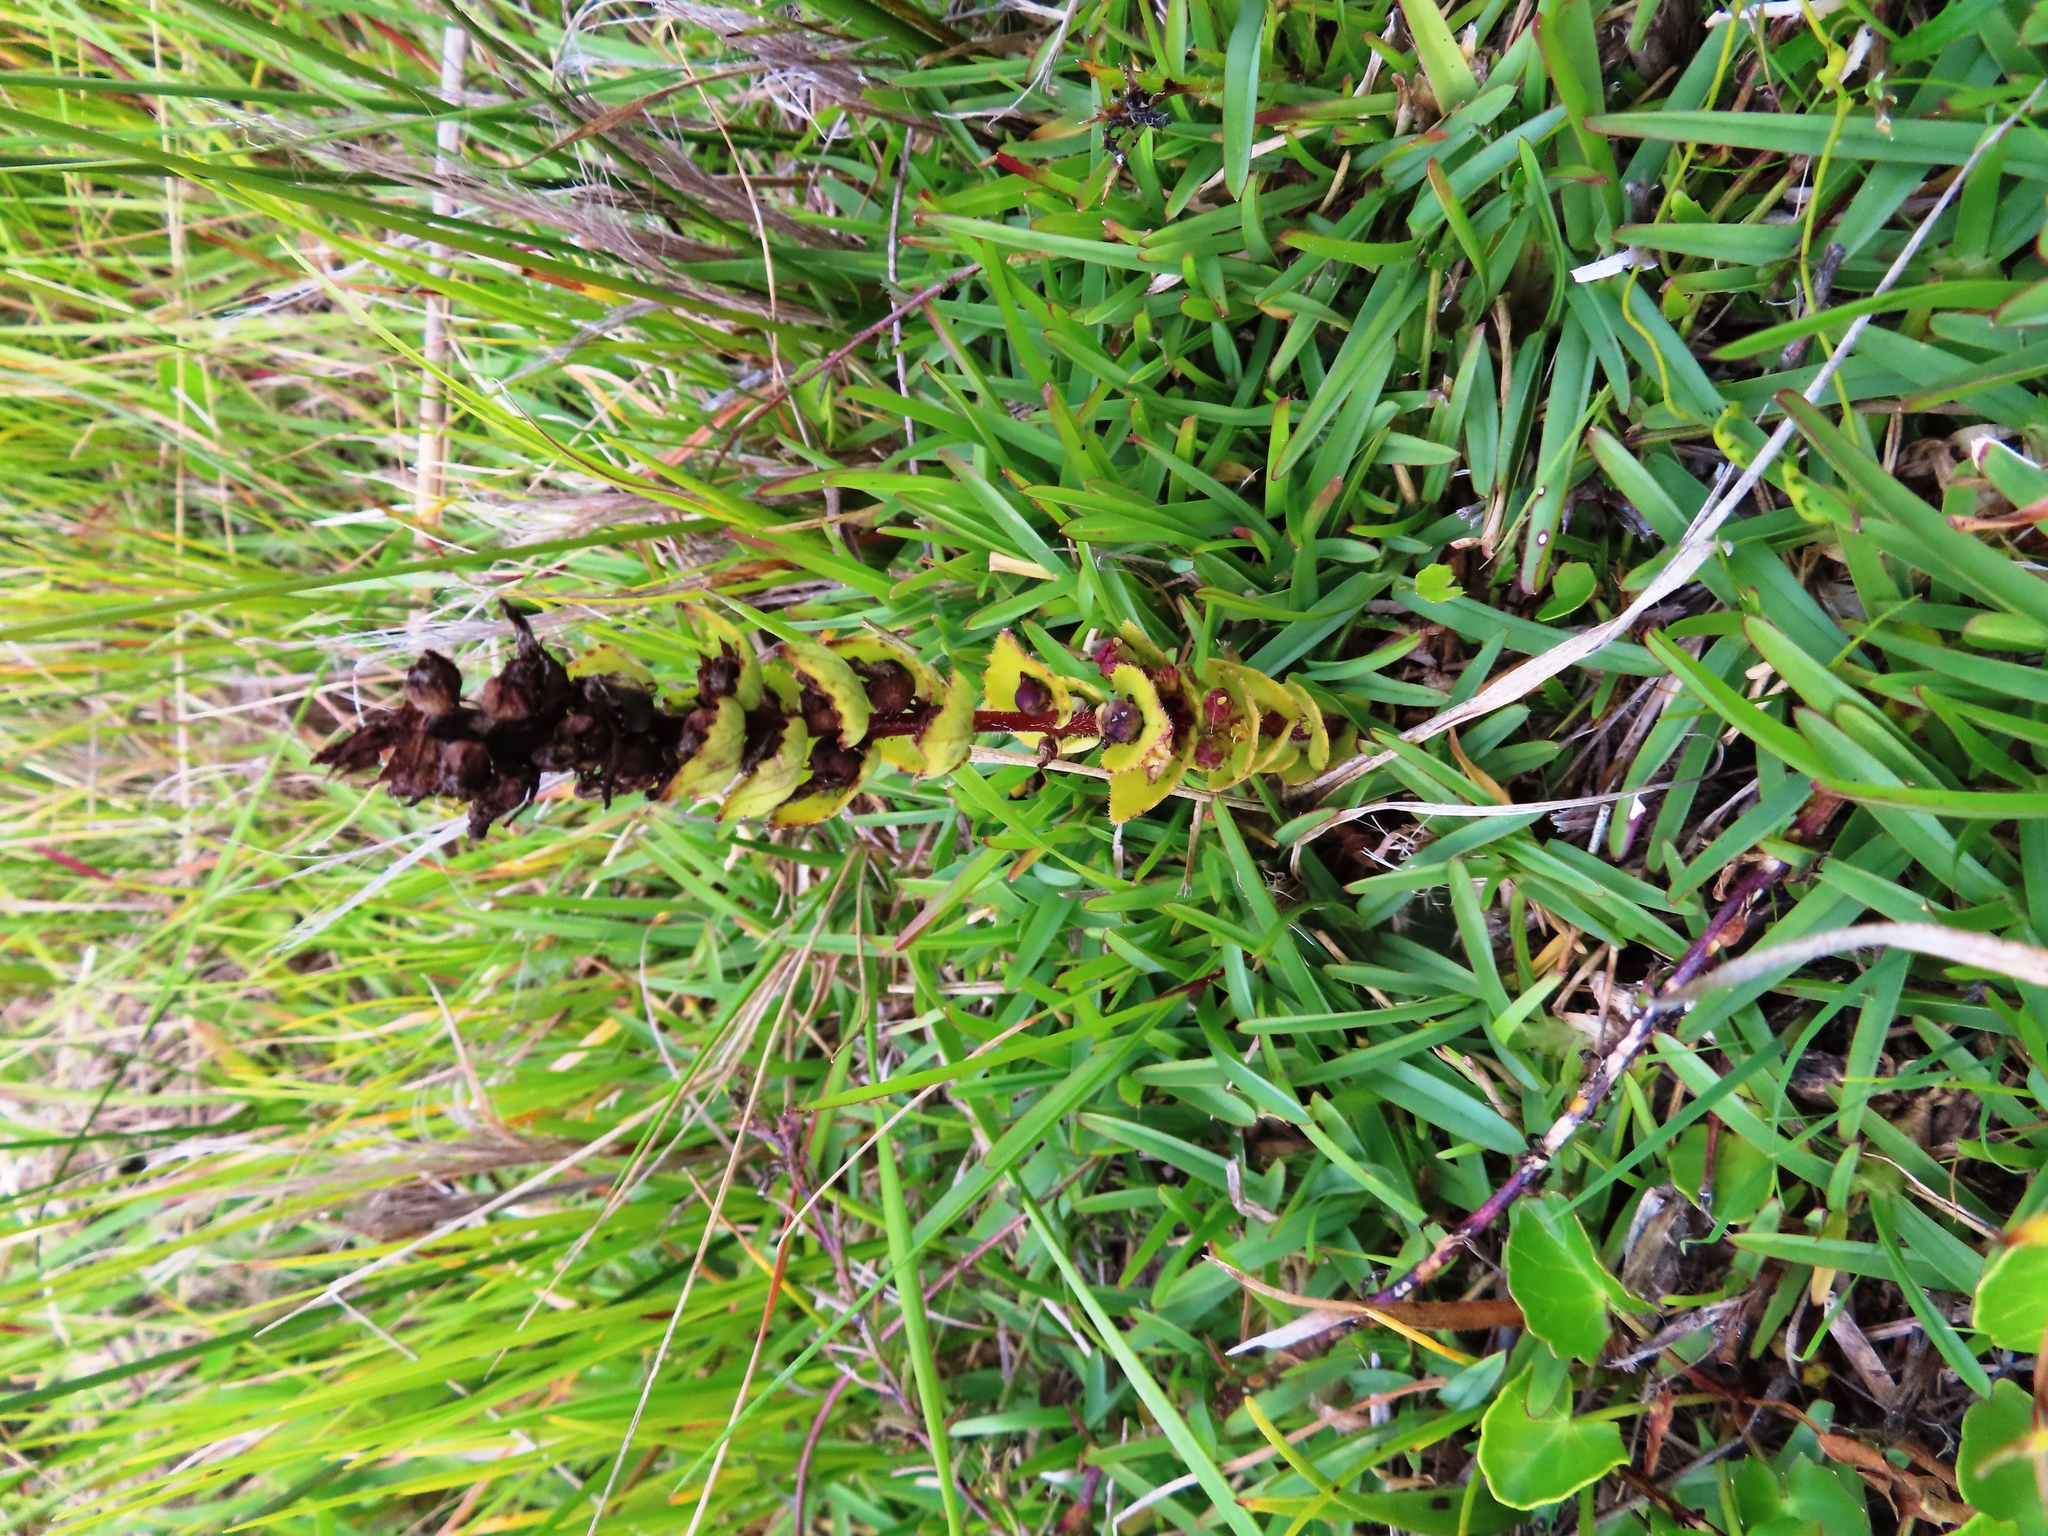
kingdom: Plantae
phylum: Tracheophyta
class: Magnoliopsida
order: Lamiales
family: Orobanchaceae
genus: Alectra
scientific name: Alectra sessiliflora
